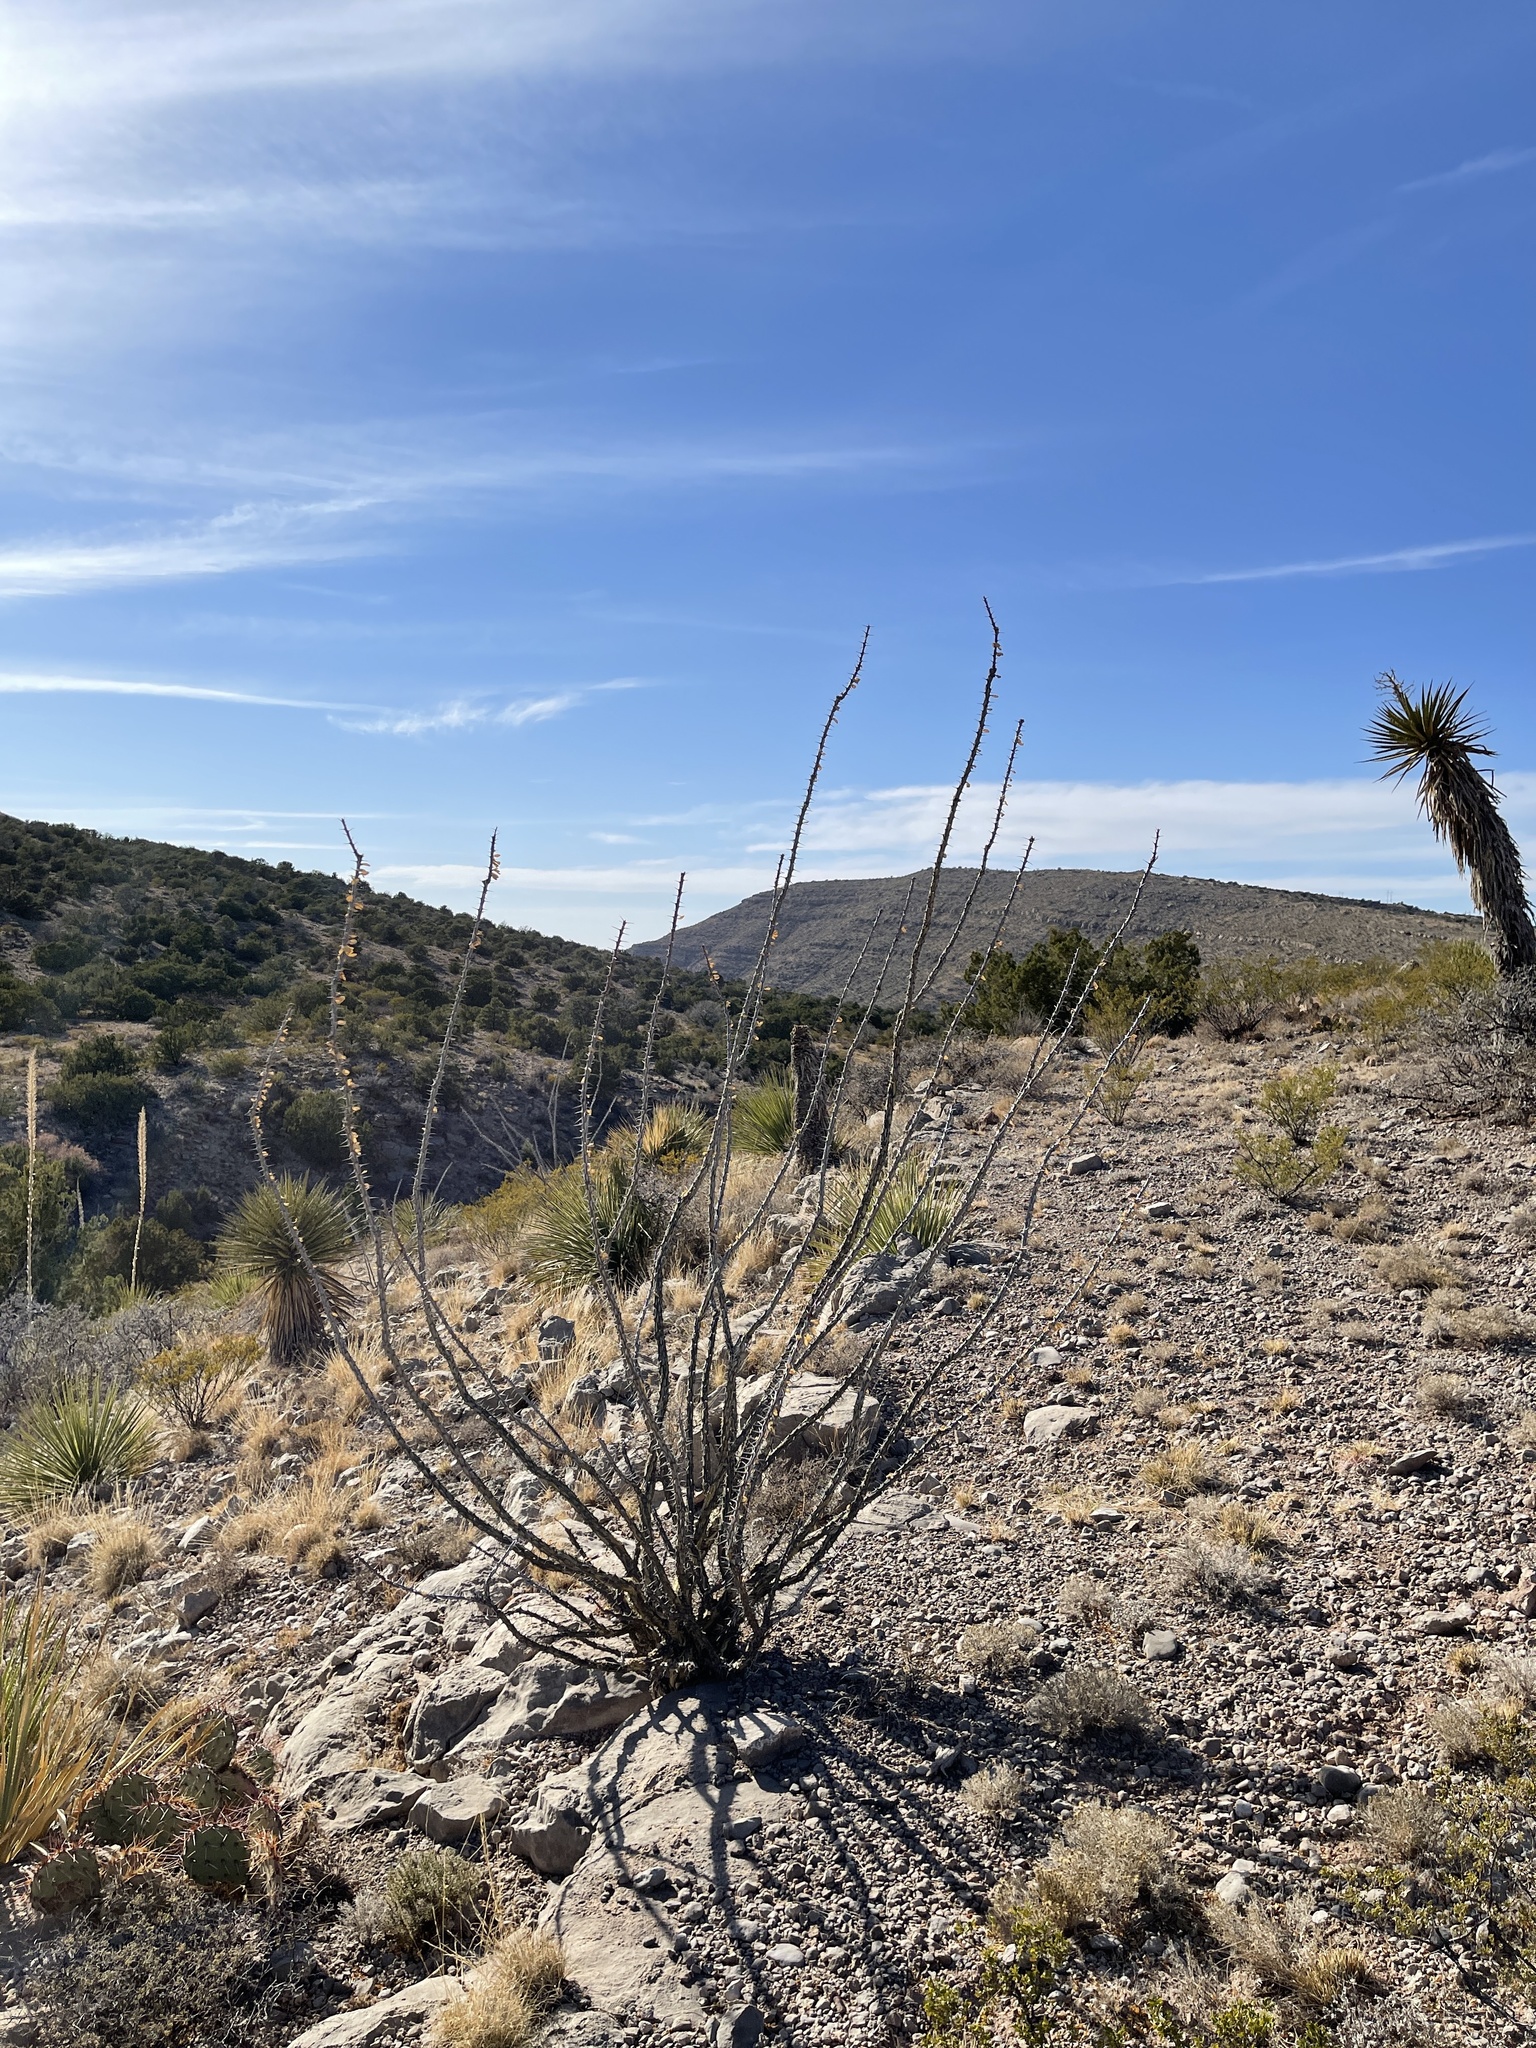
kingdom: Plantae
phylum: Tracheophyta
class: Magnoliopsida
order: Ericales
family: Fouquieriaceae
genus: Fouquieria
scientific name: Fouquieria splendens
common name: Vine-cactus
